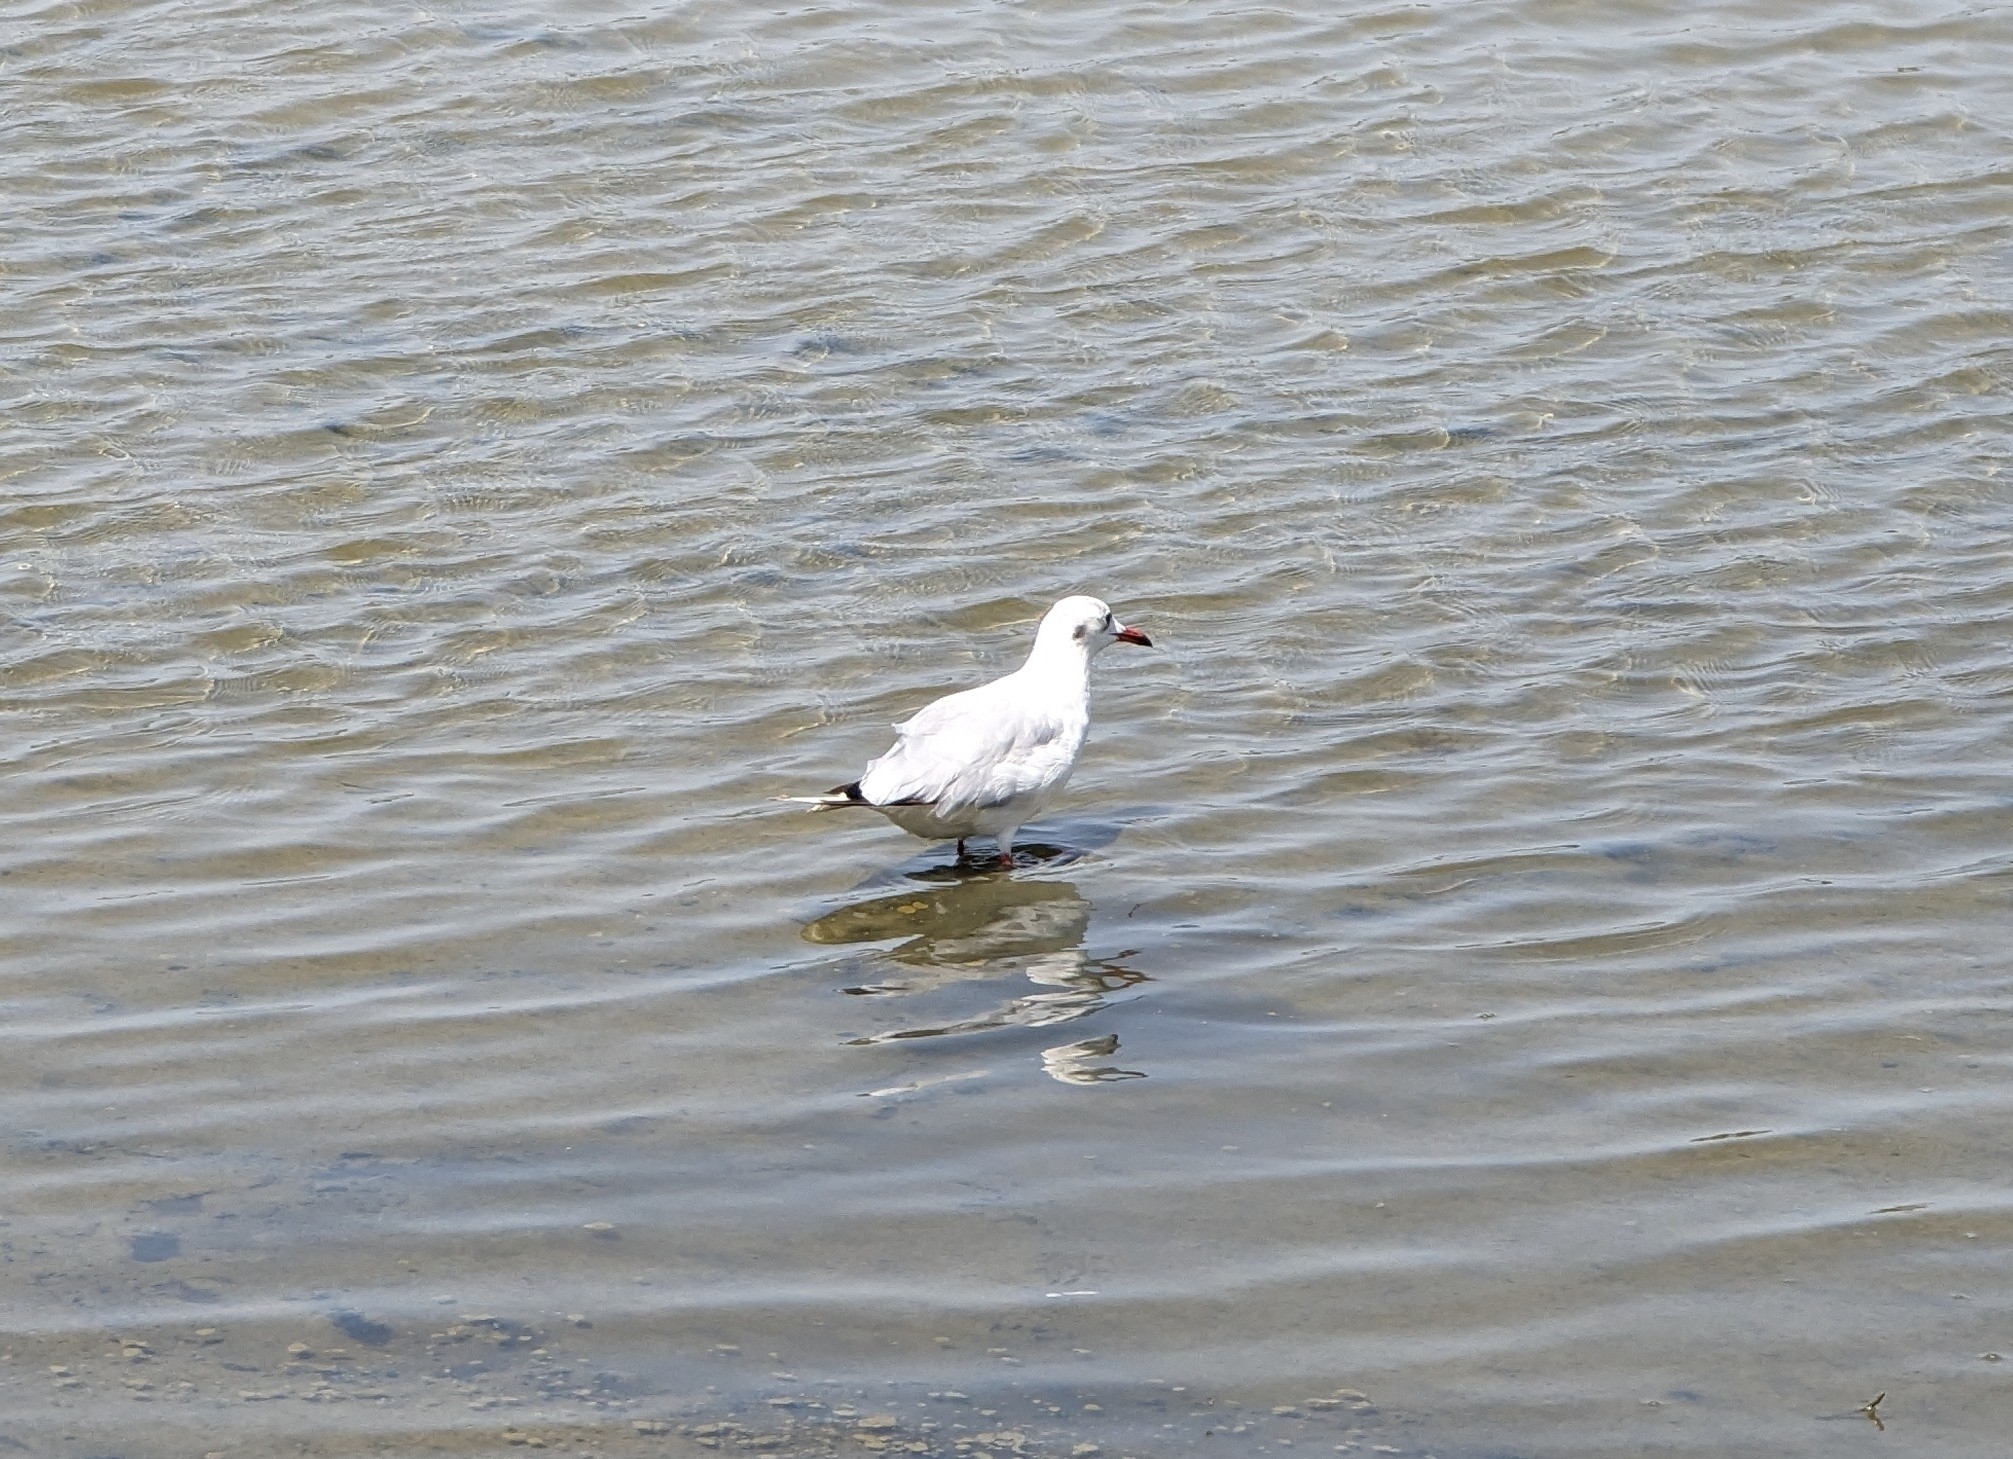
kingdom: Animalia
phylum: Chordata
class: Aves
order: Charadriiformes
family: Laridae
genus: Chroicocephalus
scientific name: Chroicocephalus ridibundus
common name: Black-headed gull
